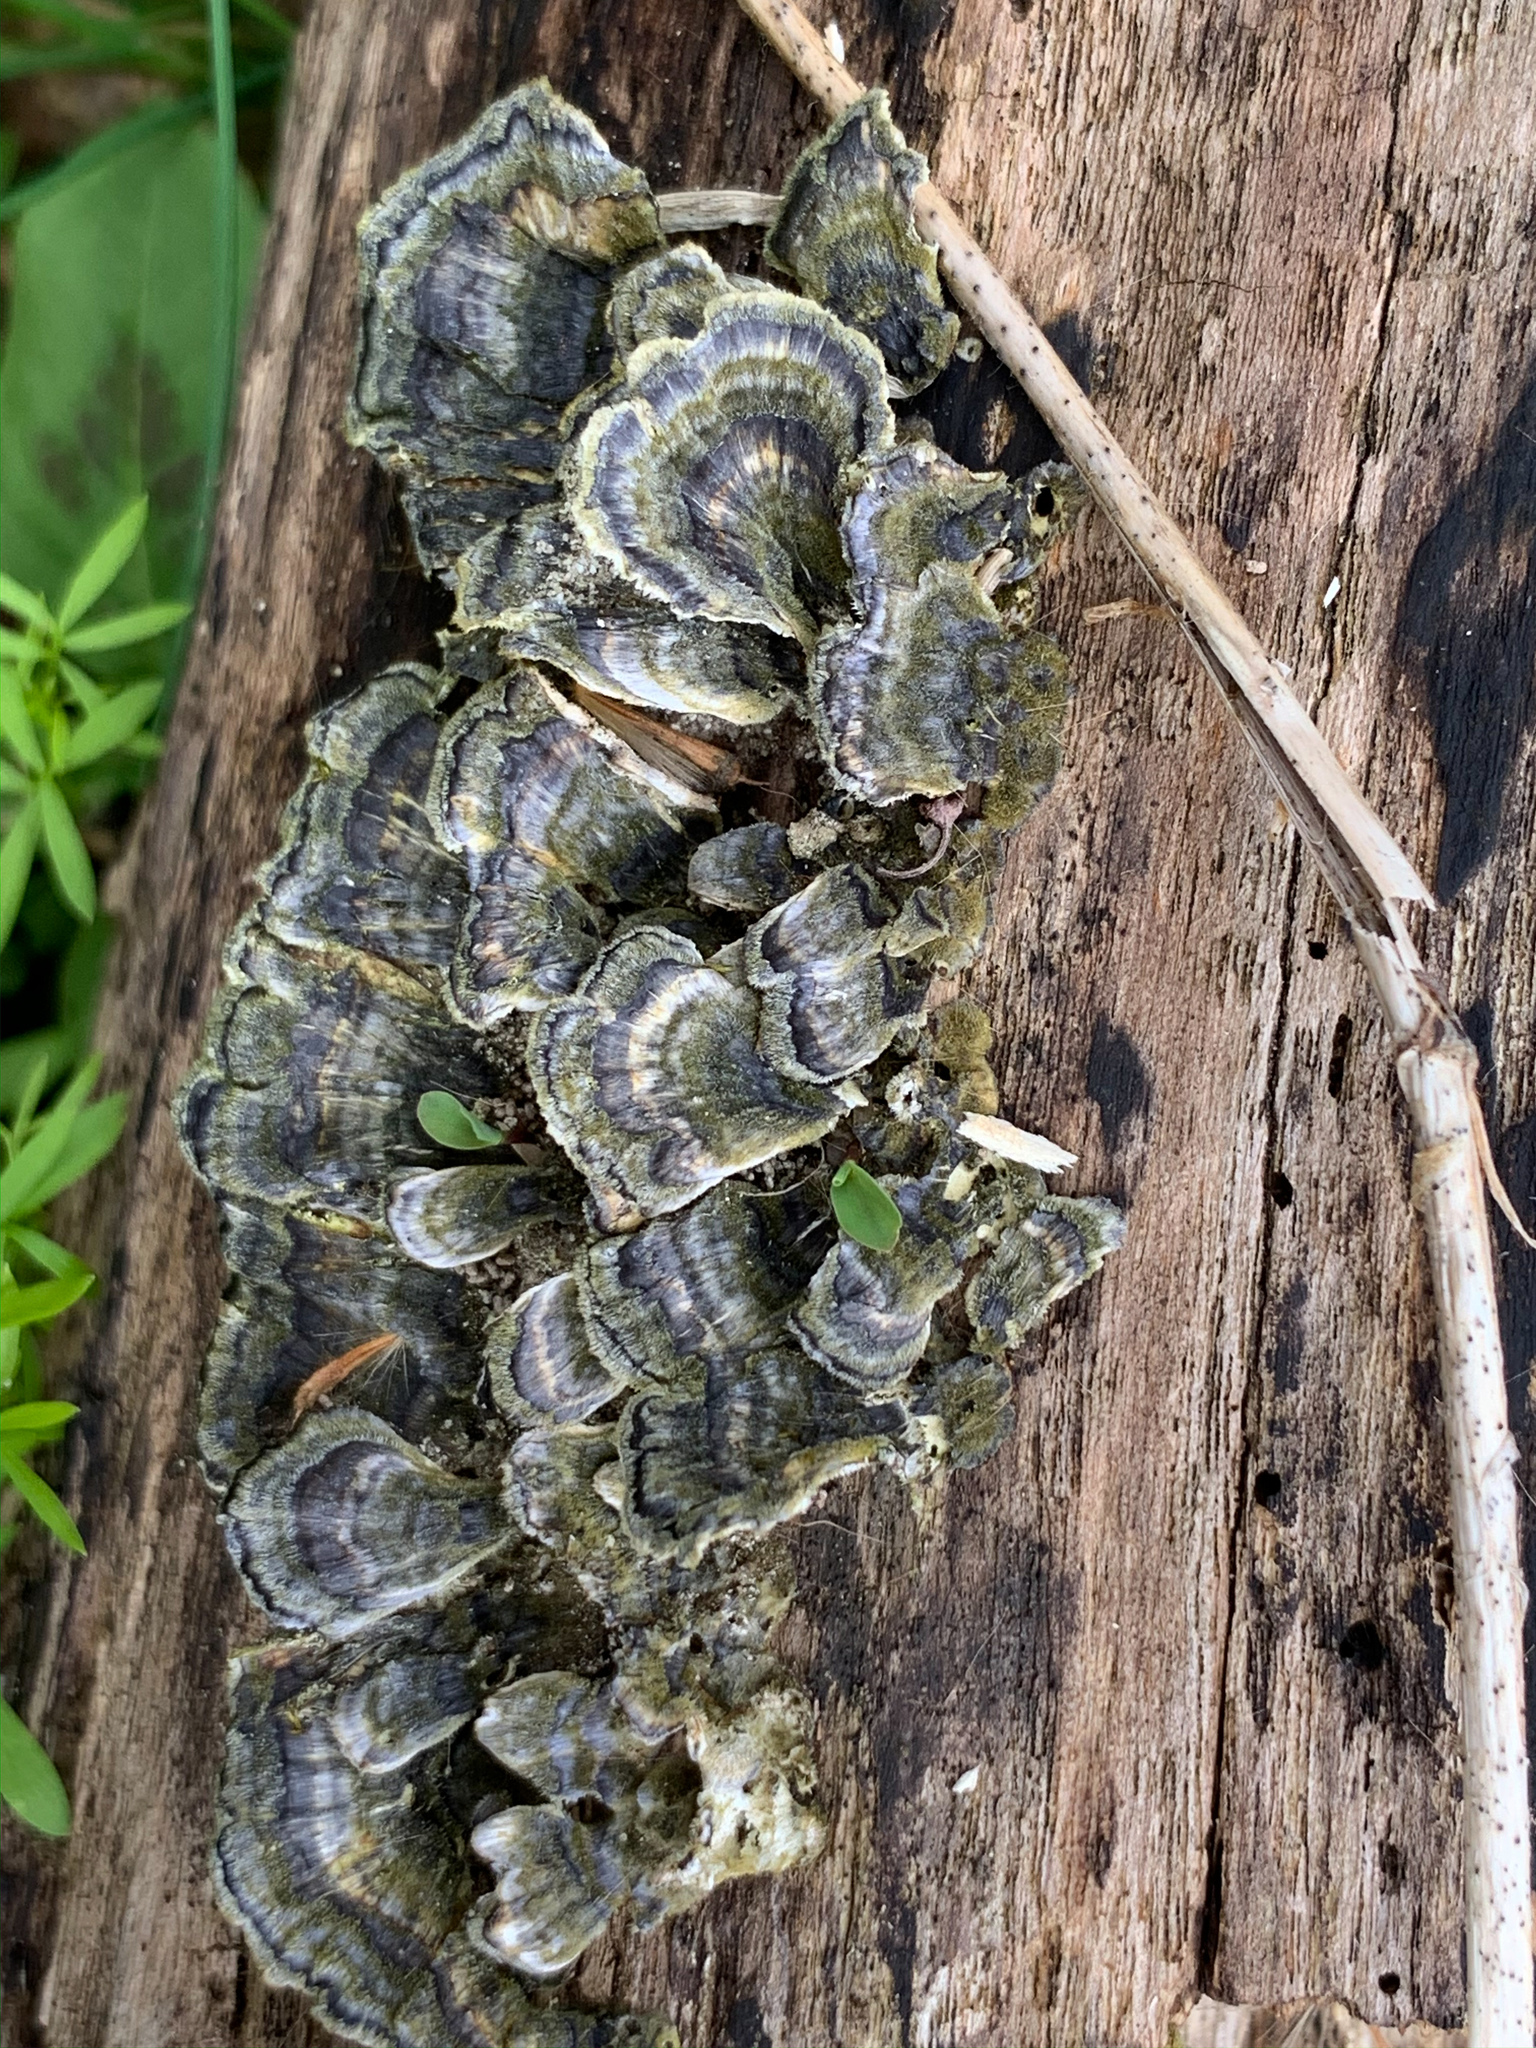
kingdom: Fungi
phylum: Basidiomycota
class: Agaricomycetes
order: Polyporales
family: Polyporaceae
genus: Trametes
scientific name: Trametes versicolor
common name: Turkeytail
